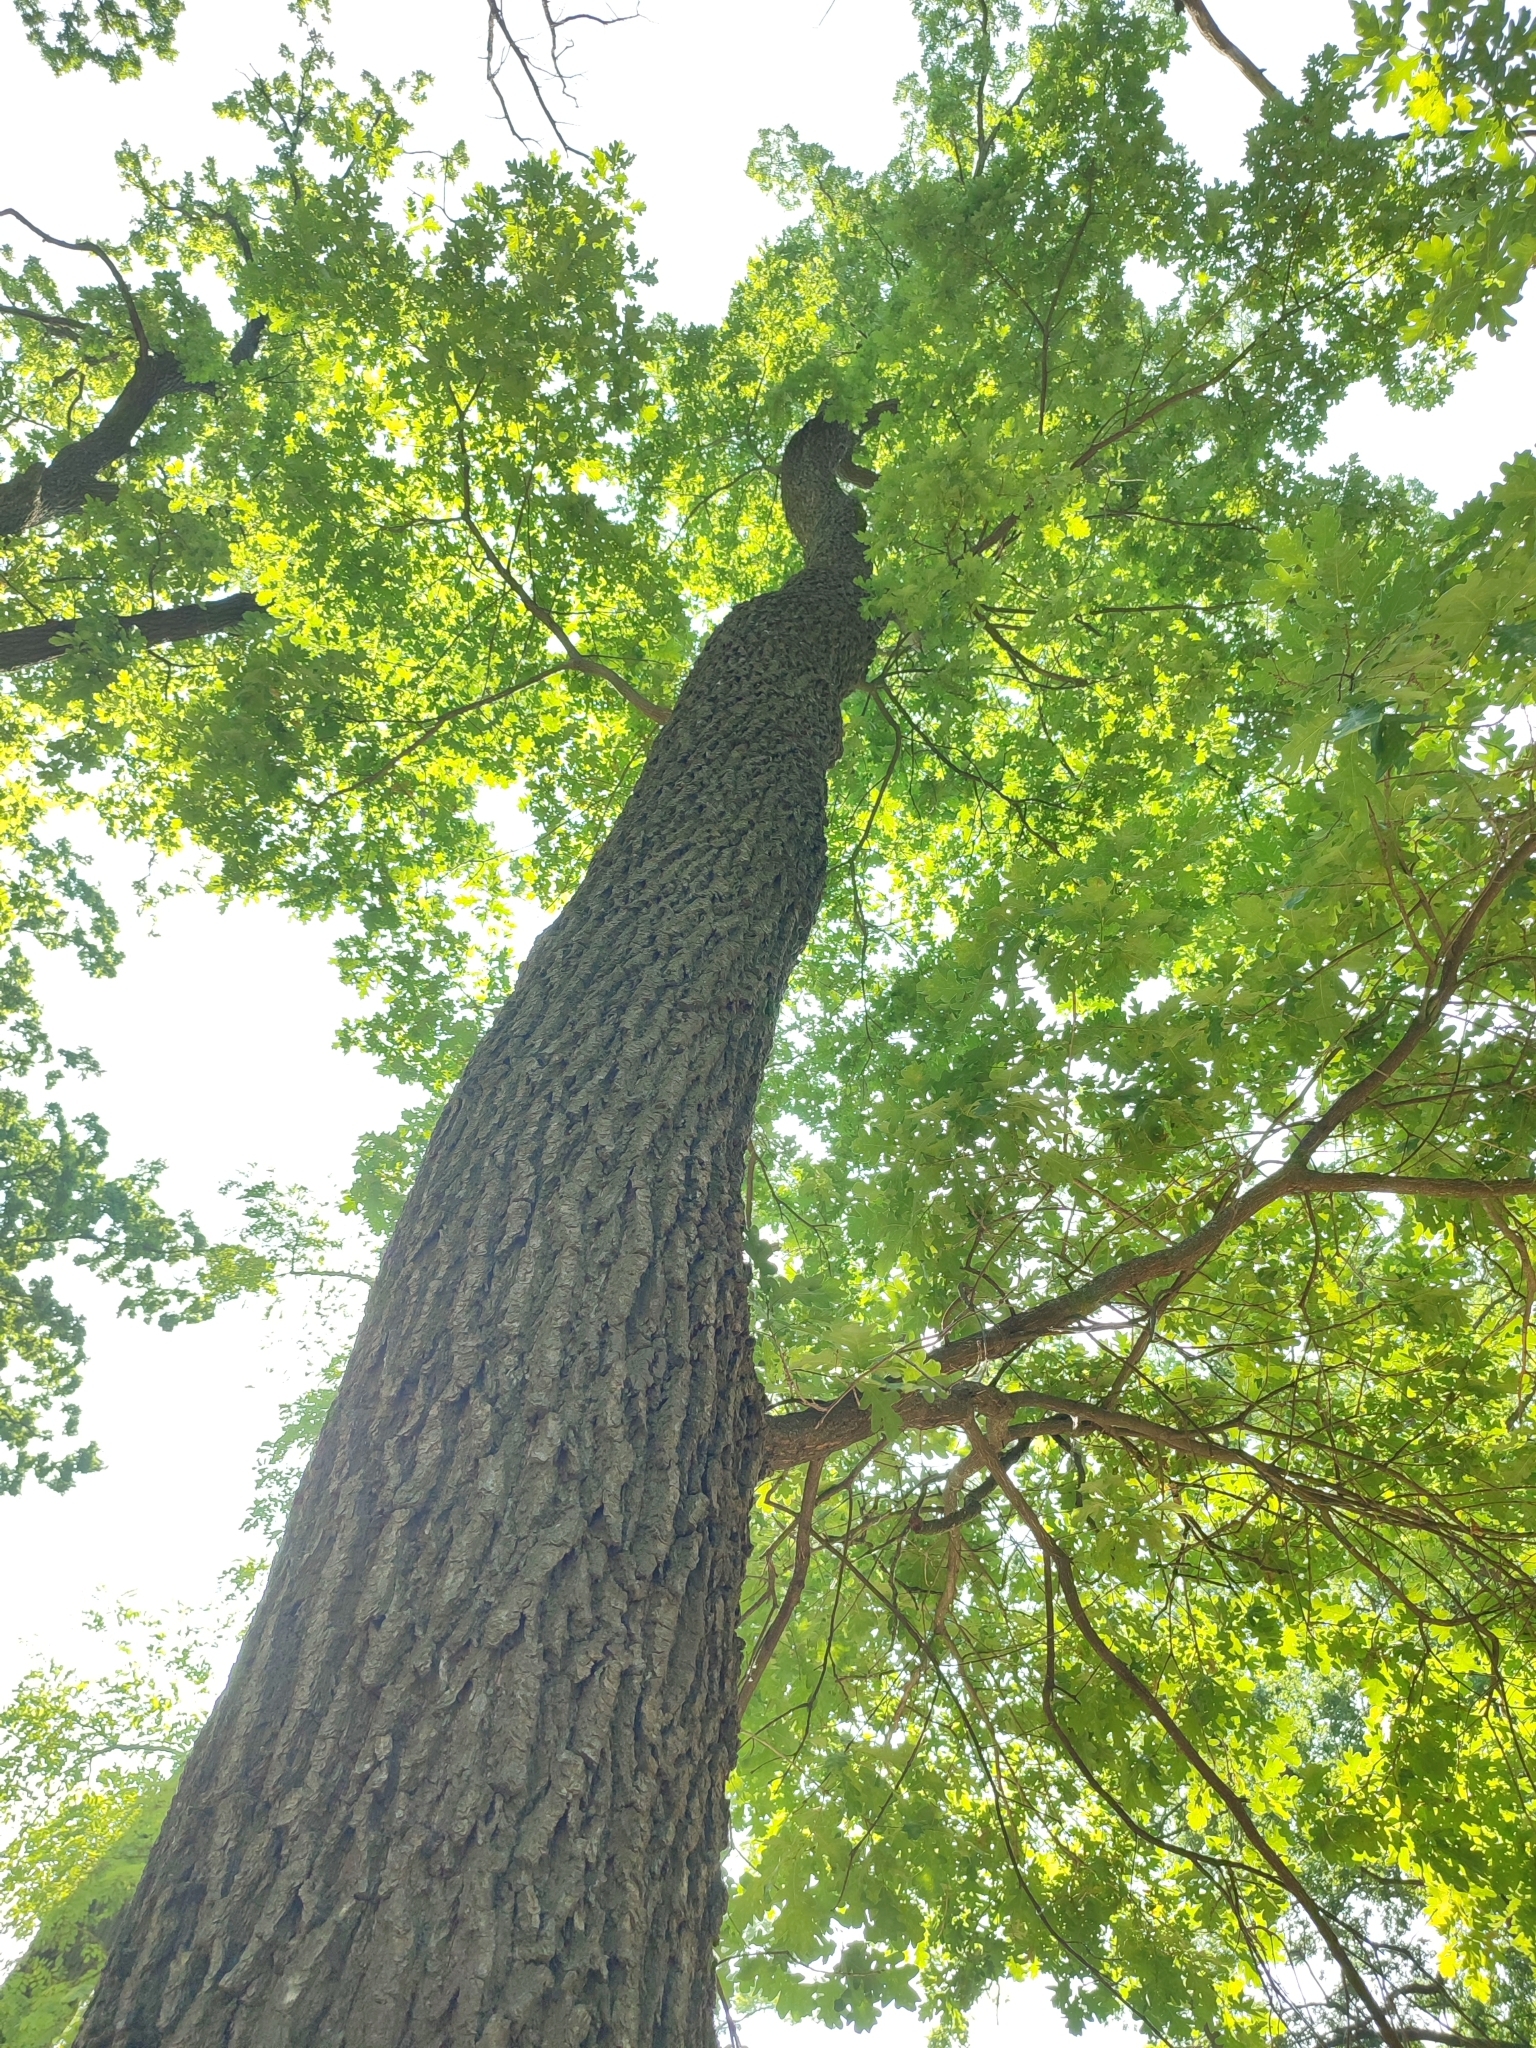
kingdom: Plantae
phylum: Tracheophyta
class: Magnoliopsida
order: Fagales
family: Fagaceae
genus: Quercus
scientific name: Quercus robur
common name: Pedunculate oak
